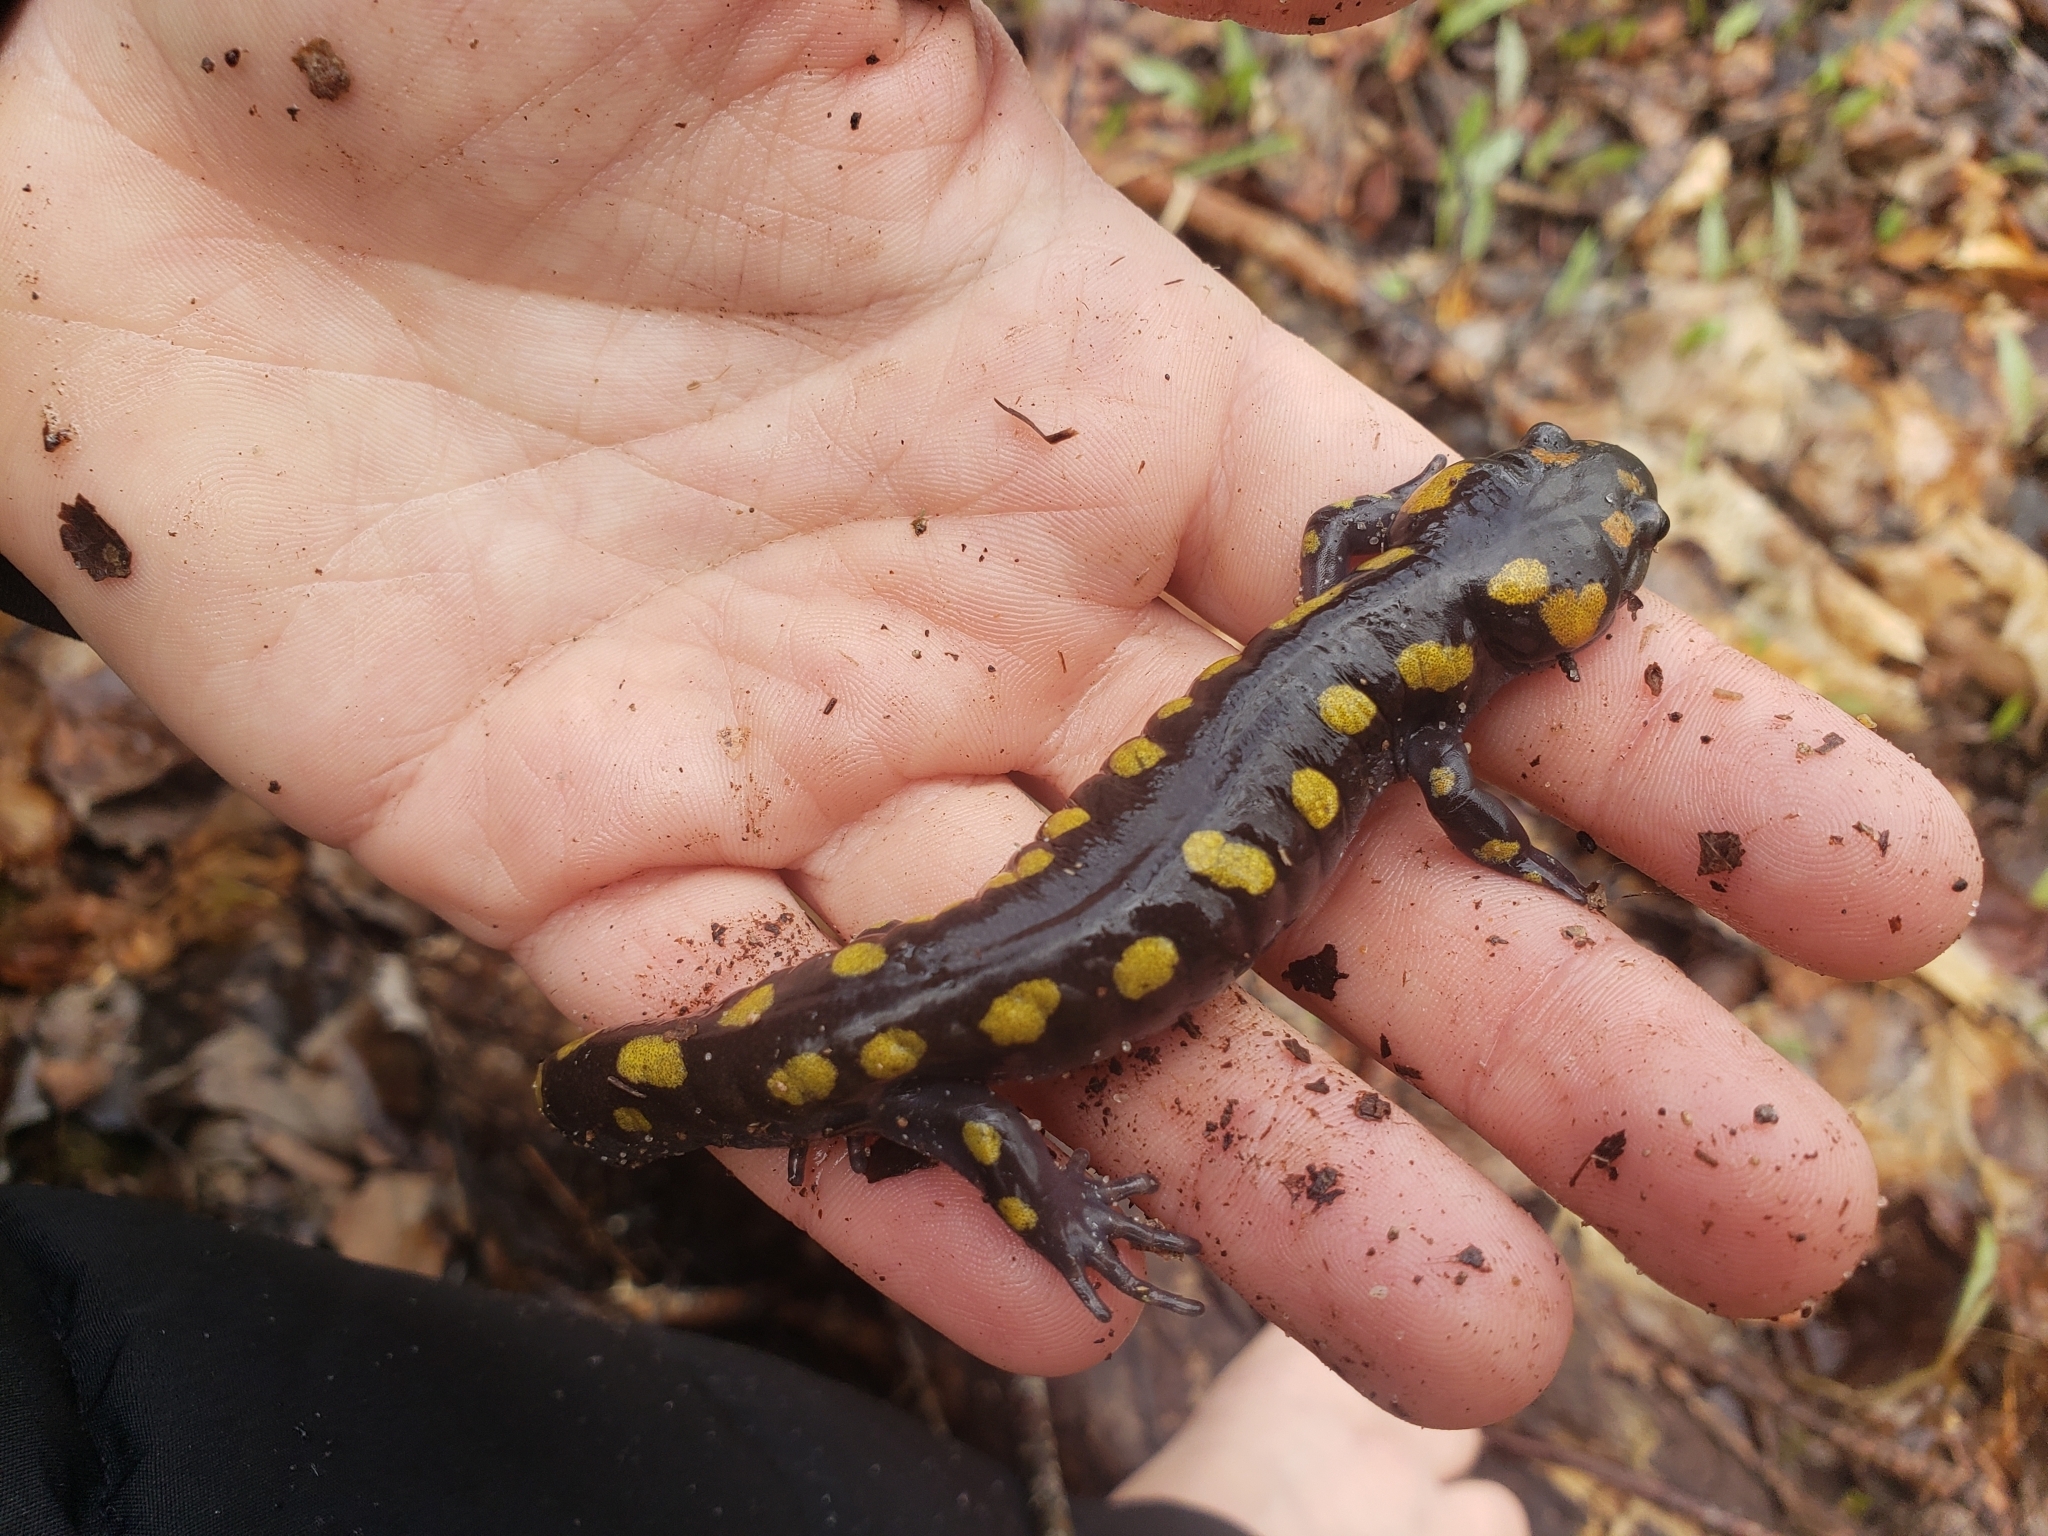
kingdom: Animalia
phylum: Chordata
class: Amphibia
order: Caudata
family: Ambystomatidae
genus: Ambystoma
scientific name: Ambystoma maculatum
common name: Spotted salamander
